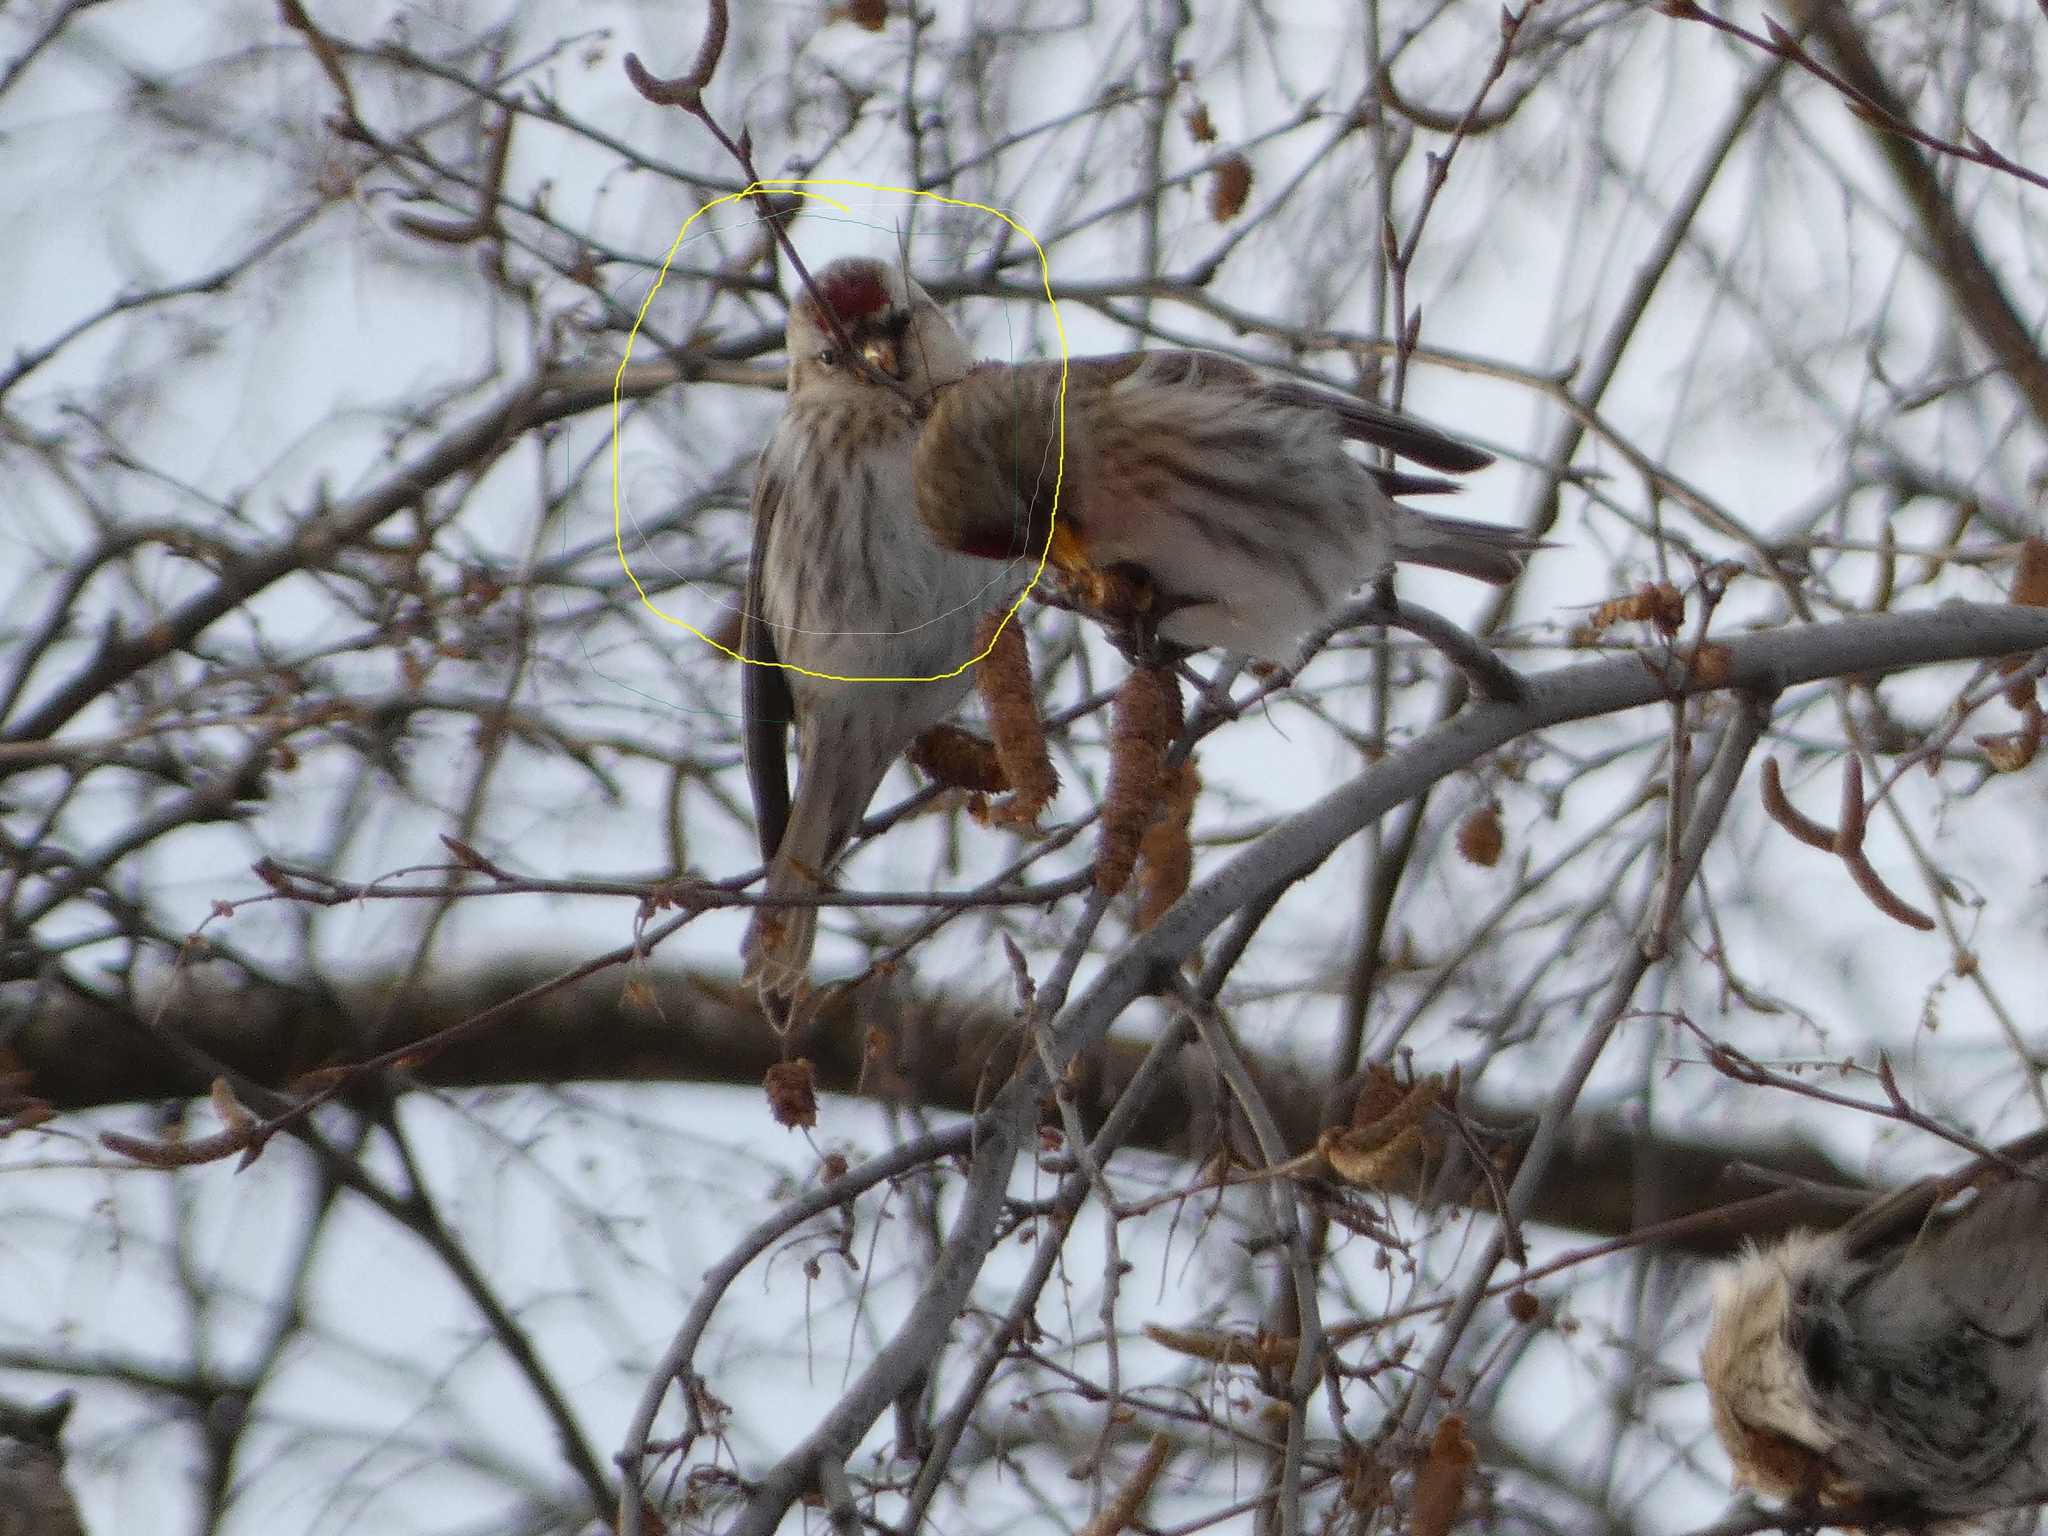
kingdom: Animalia
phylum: Chordata
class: Aves
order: Passeriformes
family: Fringillidae
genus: Acanthis
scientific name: Acanthis flammea
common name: Common redpoll
